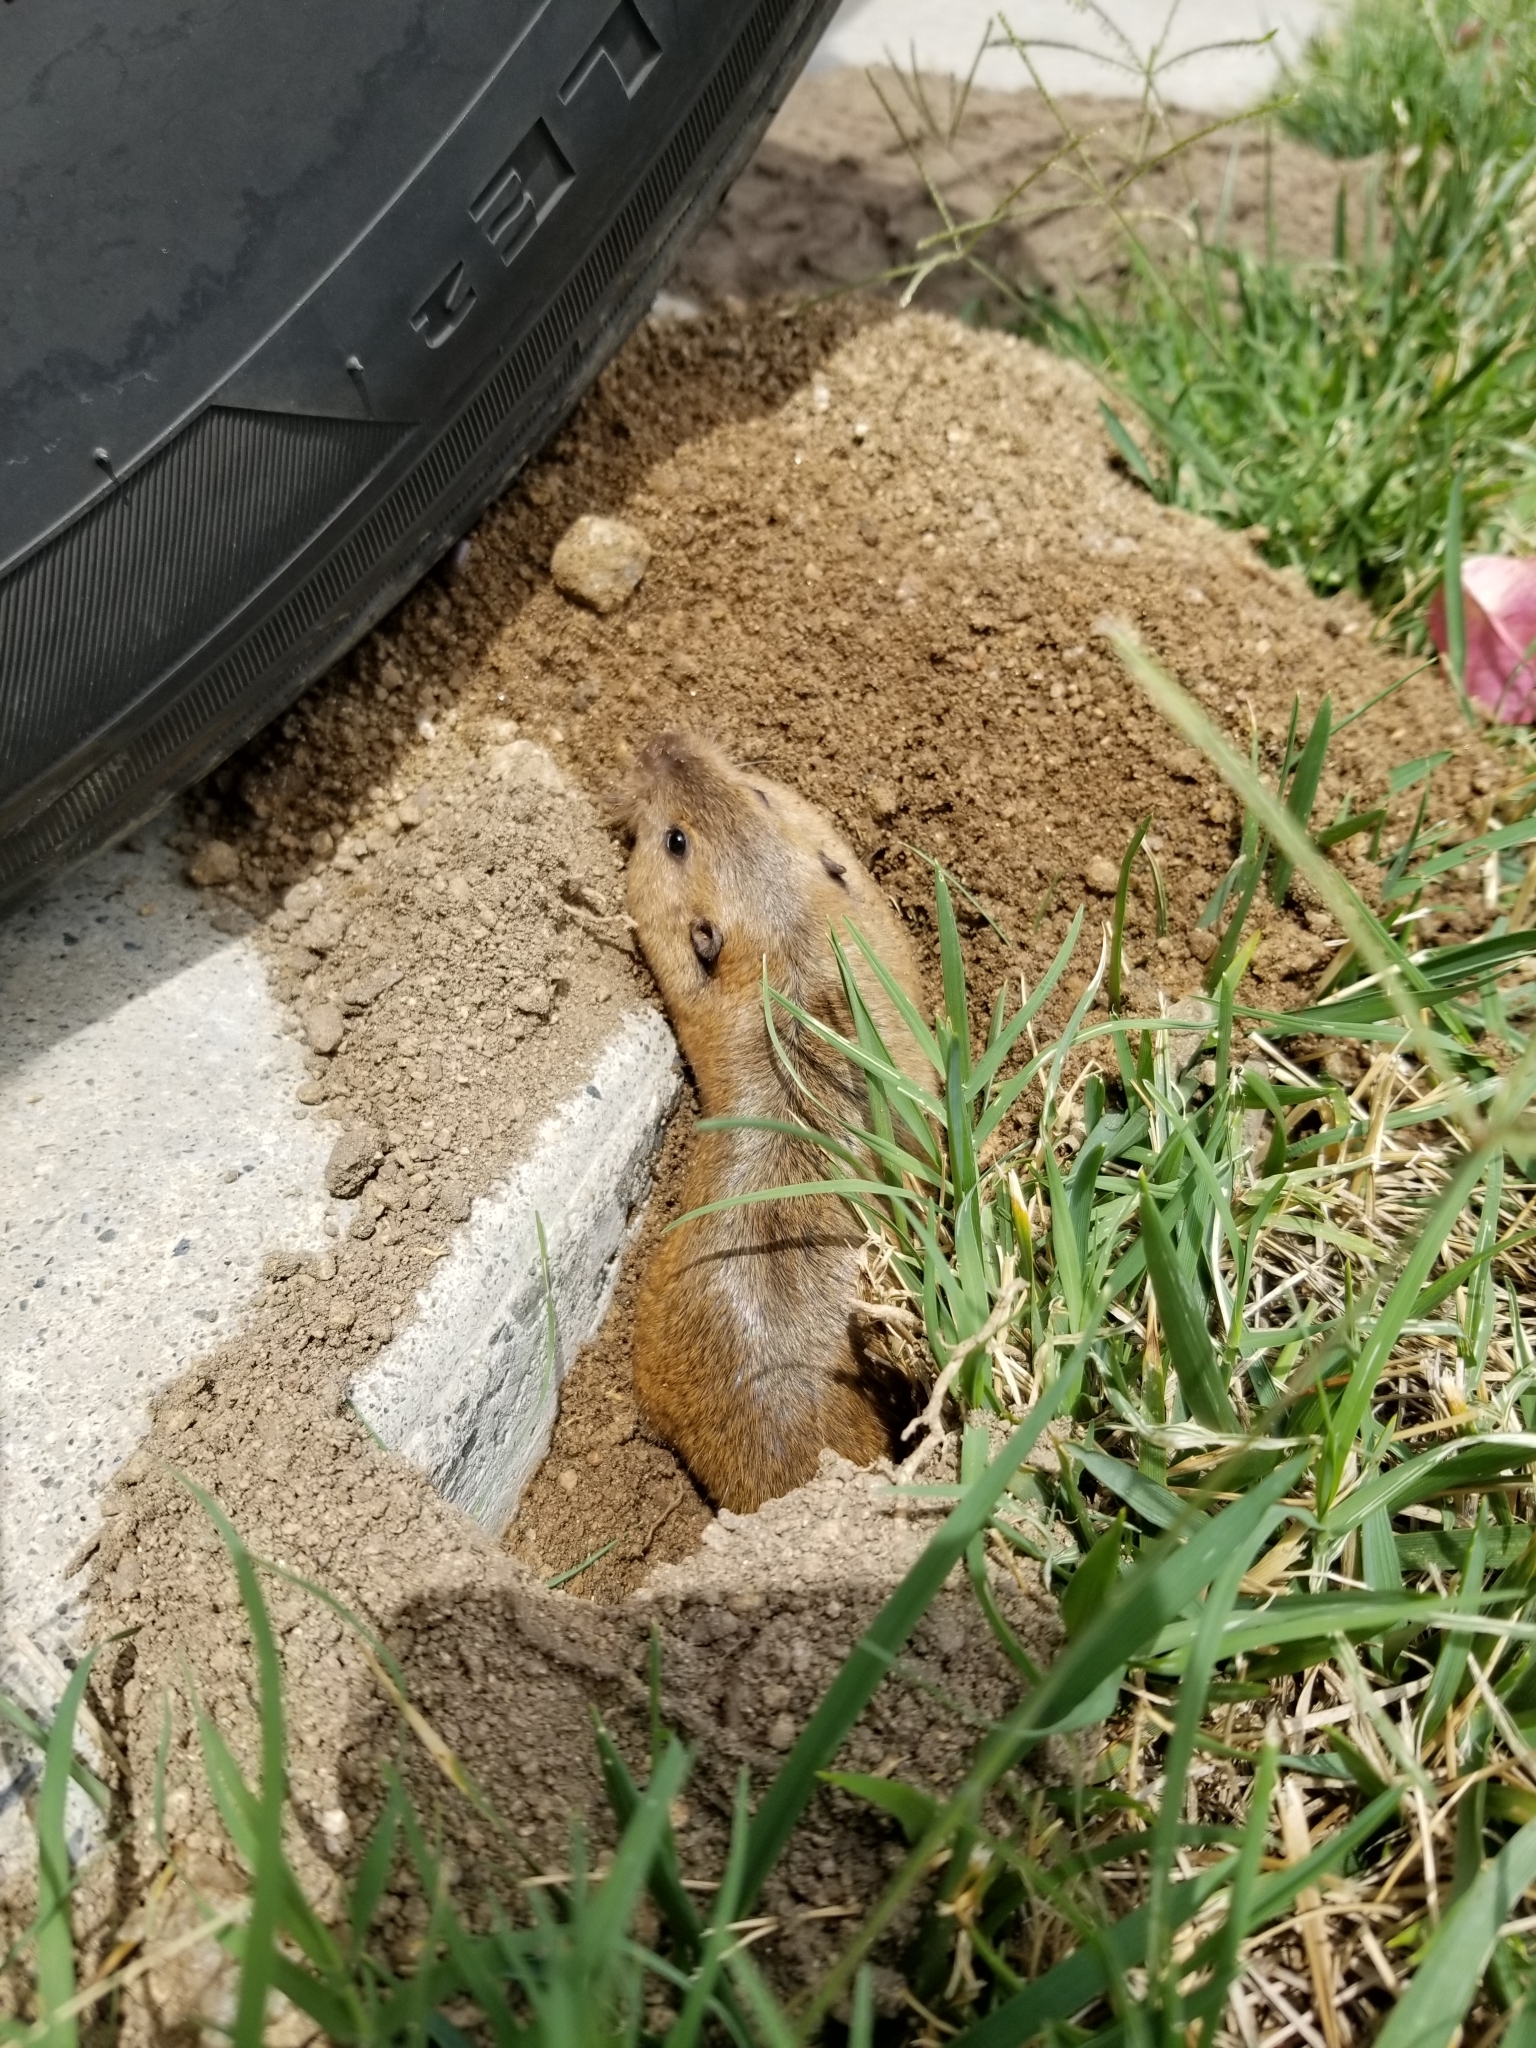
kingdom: Animalia
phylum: Chordata
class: Mammalia
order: Rodentia
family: Geomyidae
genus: Thomomys
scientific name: Thomomys bottae
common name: Botta's pocket gopher
